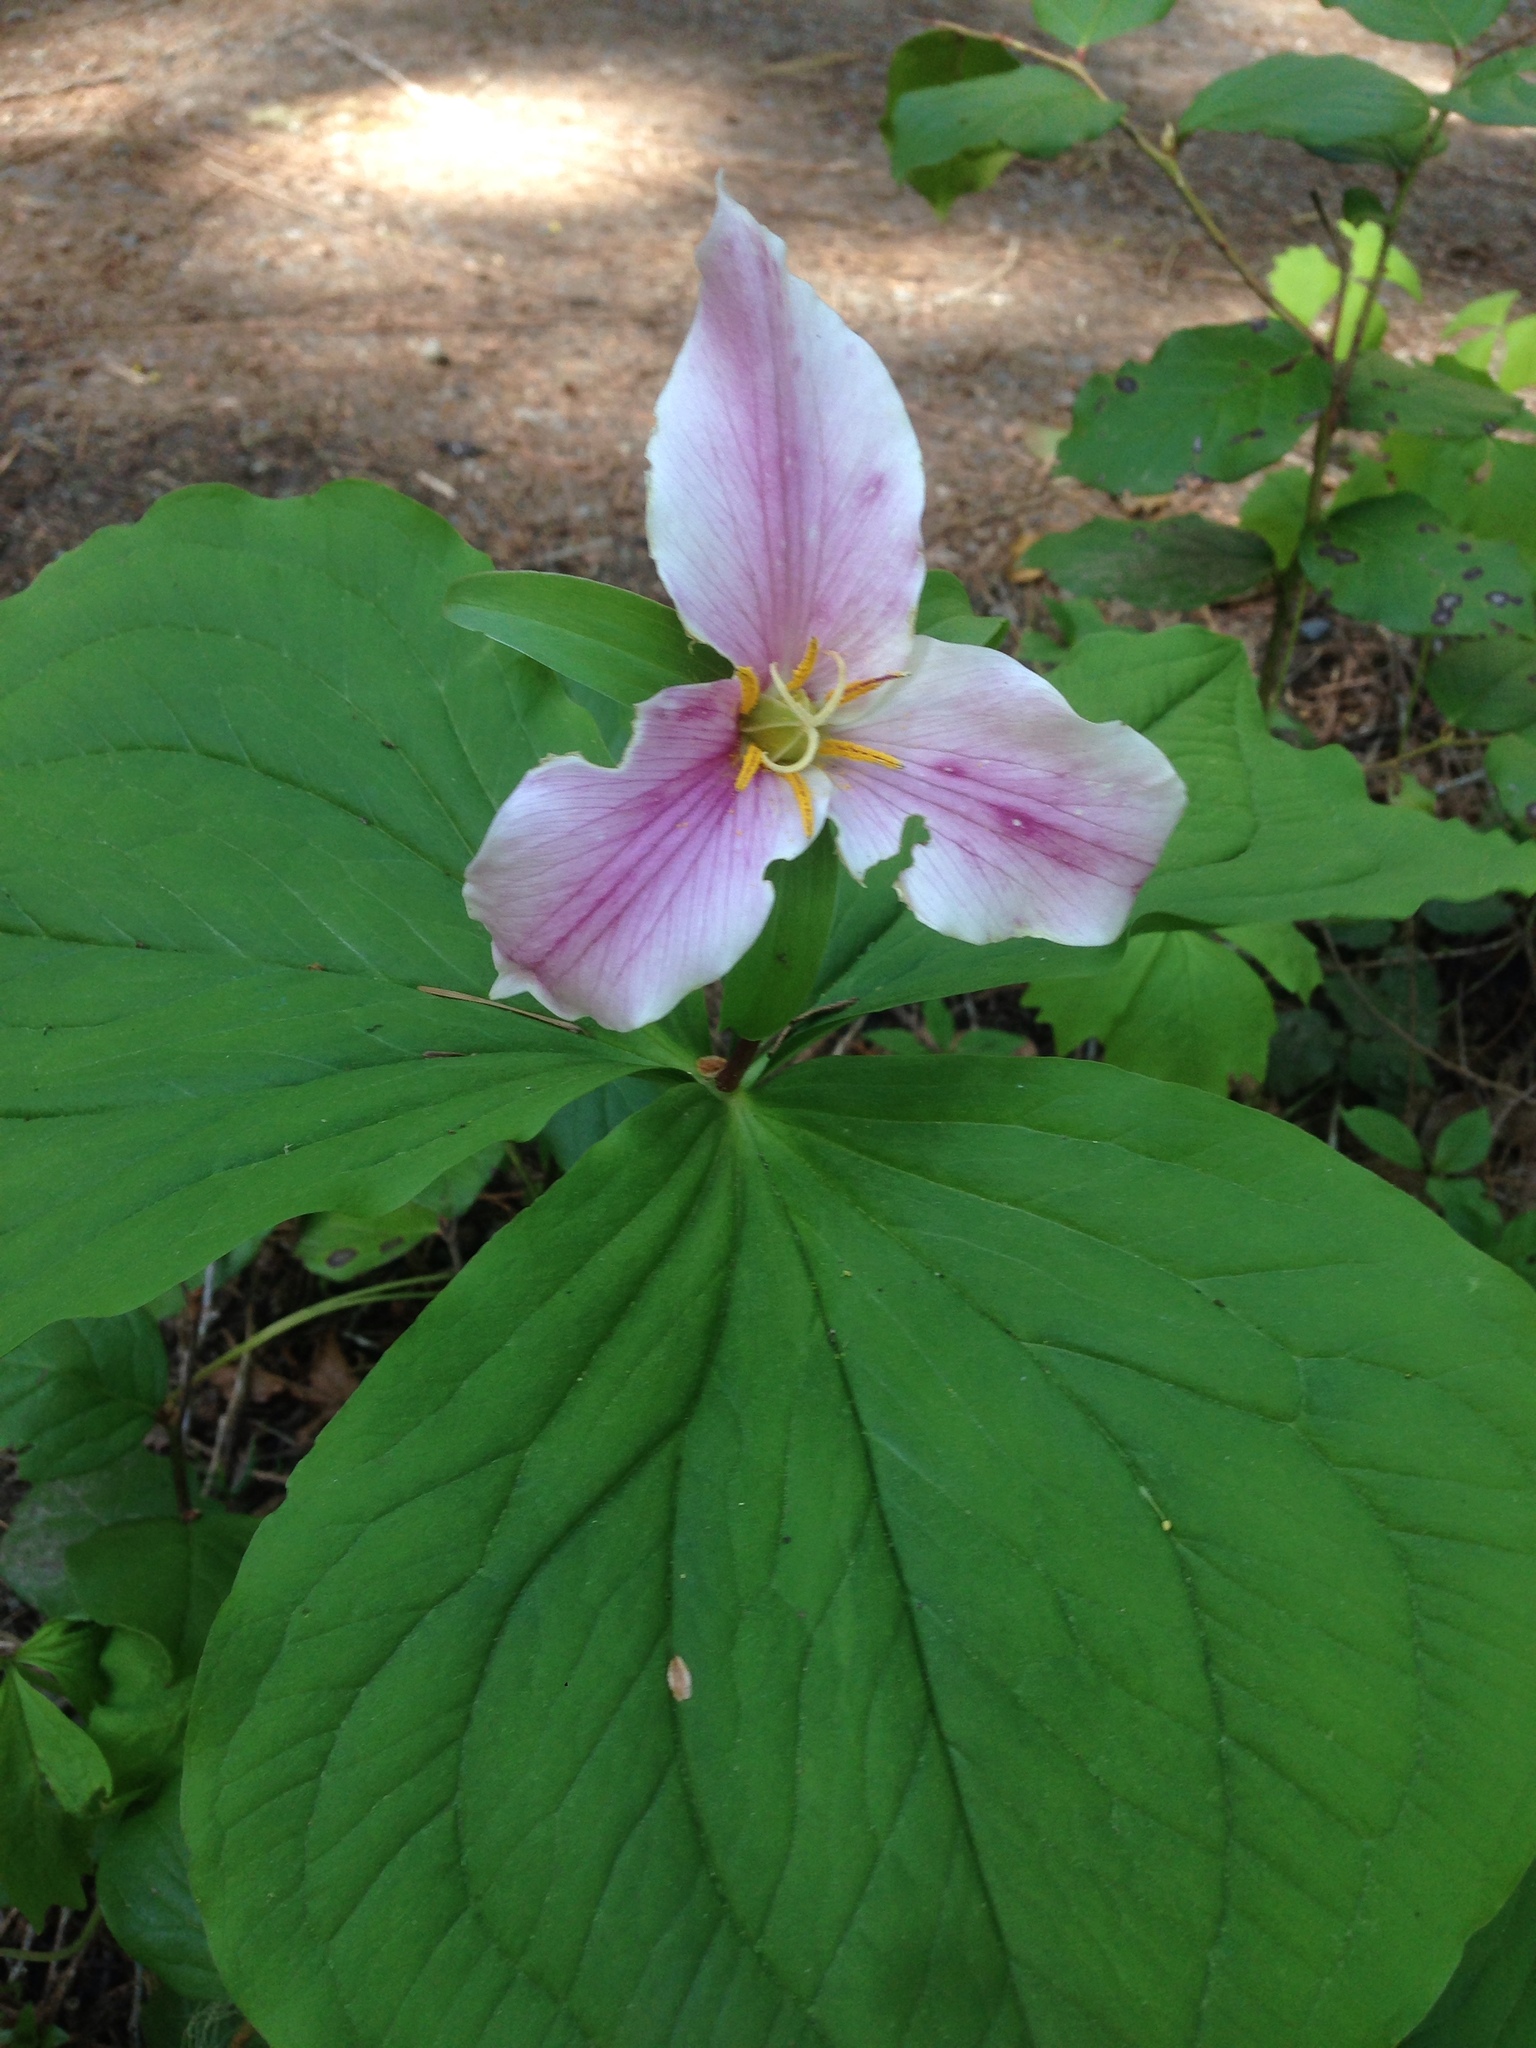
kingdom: Plantae
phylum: Tracheophyta
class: Liliopsida
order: Liliales
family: Melanthiaceae
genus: Trillium
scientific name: Trillium ovatum
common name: Pacific trillium
